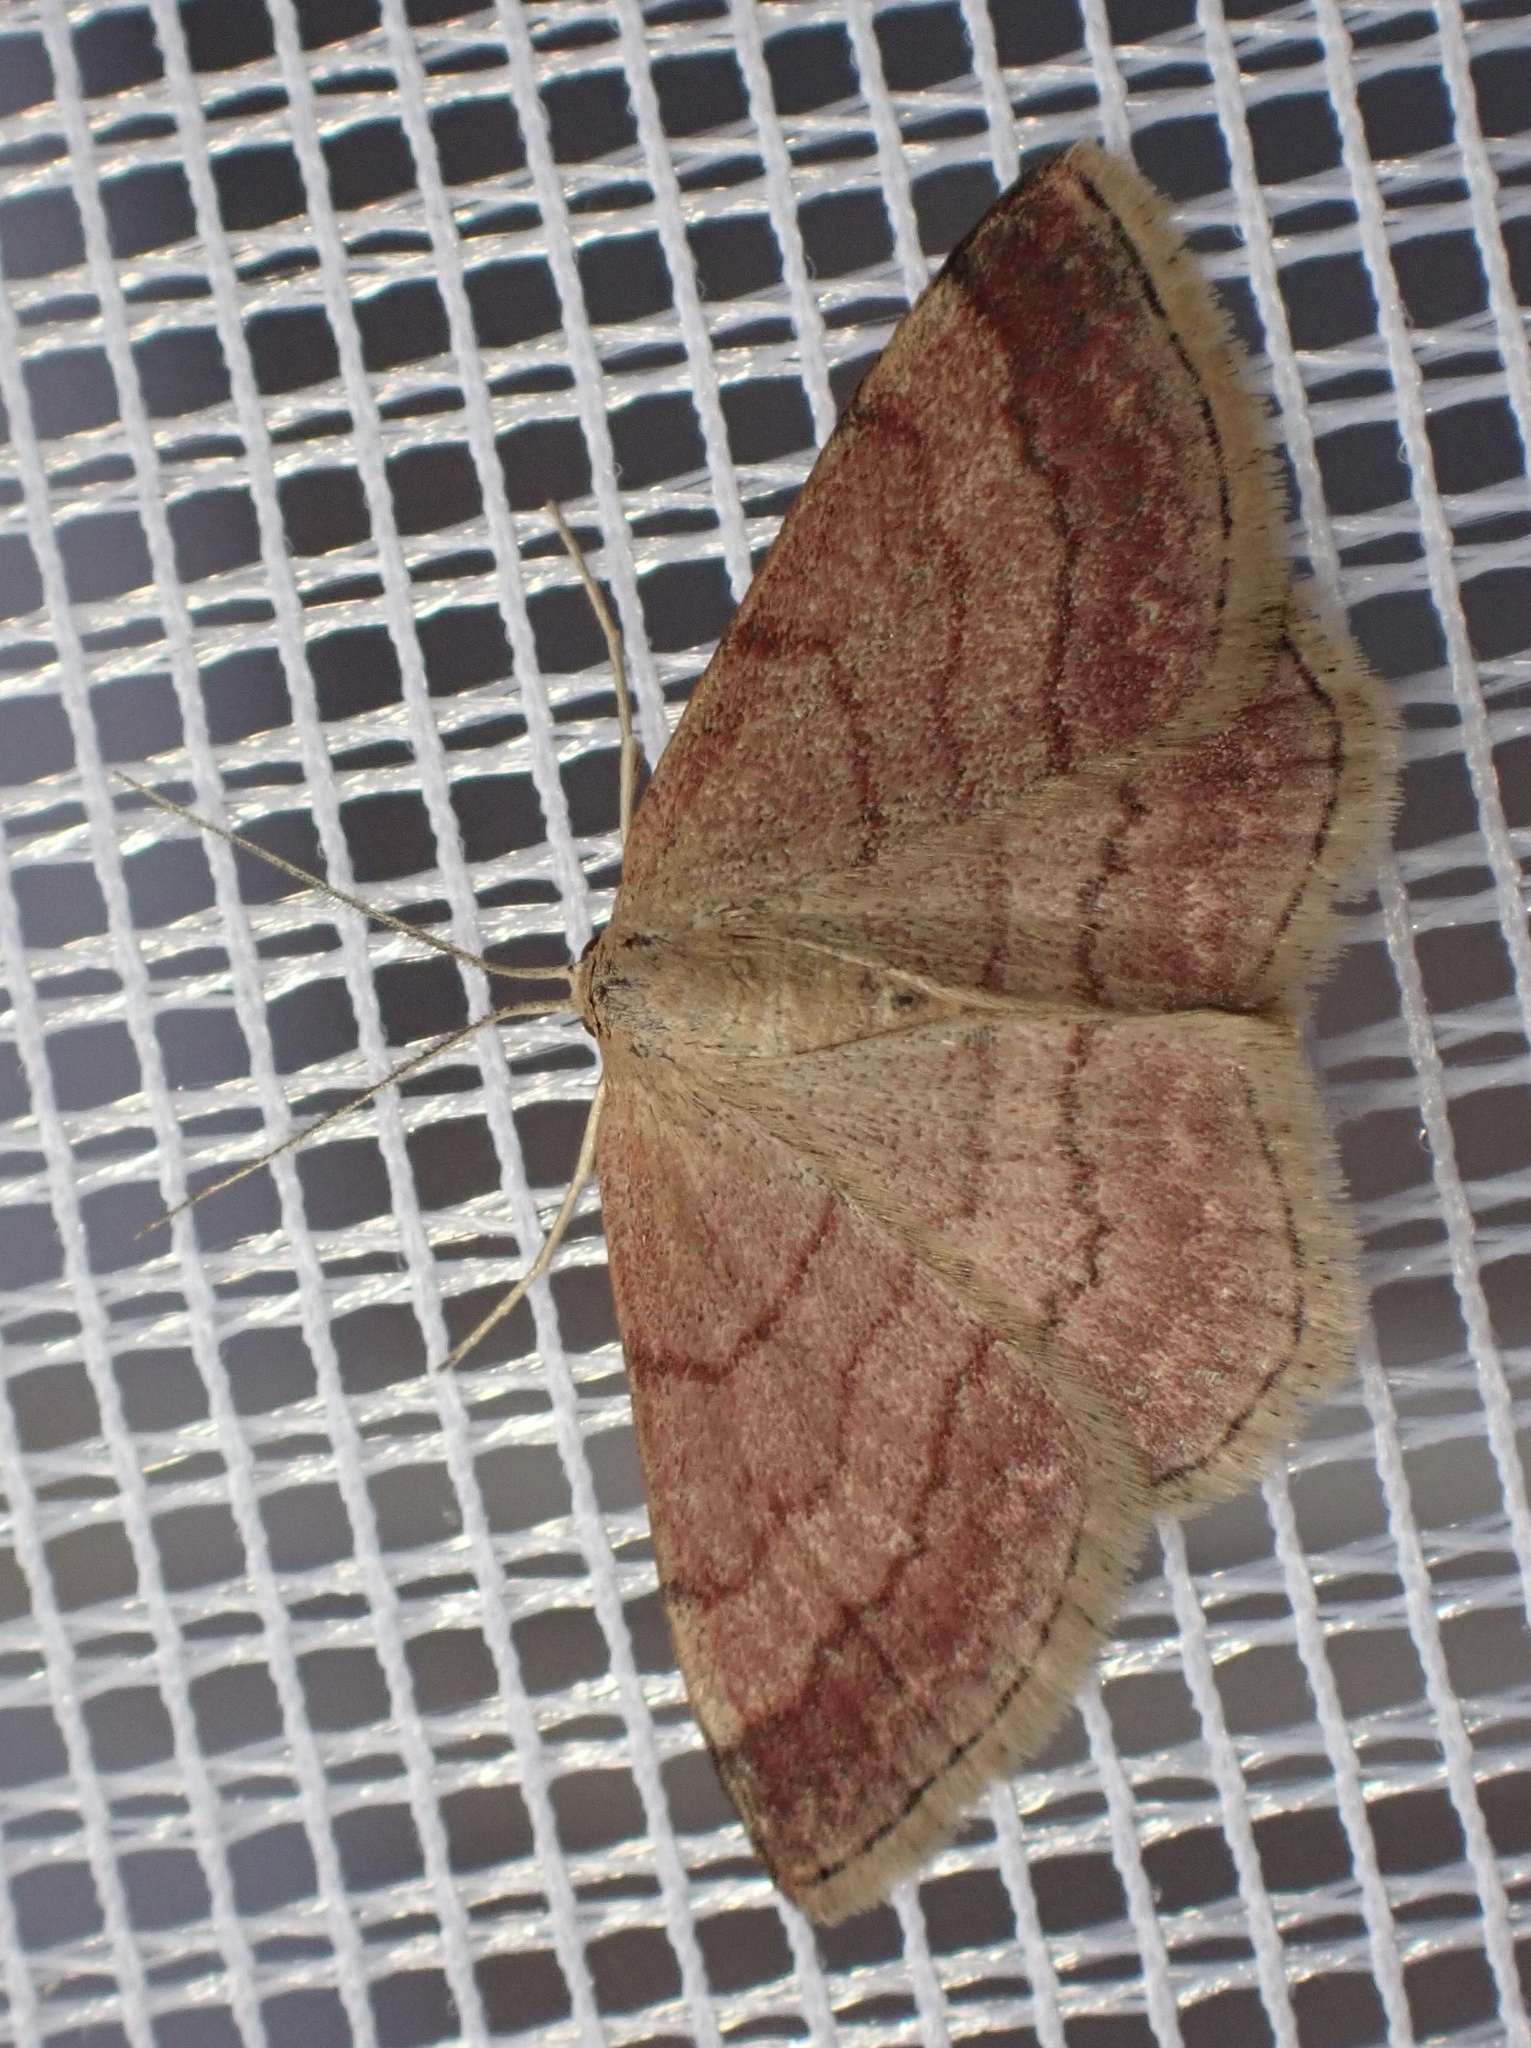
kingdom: Animalia
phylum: Arthropoda
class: Insecta
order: Lepidoptera
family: Geometridae
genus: Scopula
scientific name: Scopula rubiginata
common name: Tawny wave
